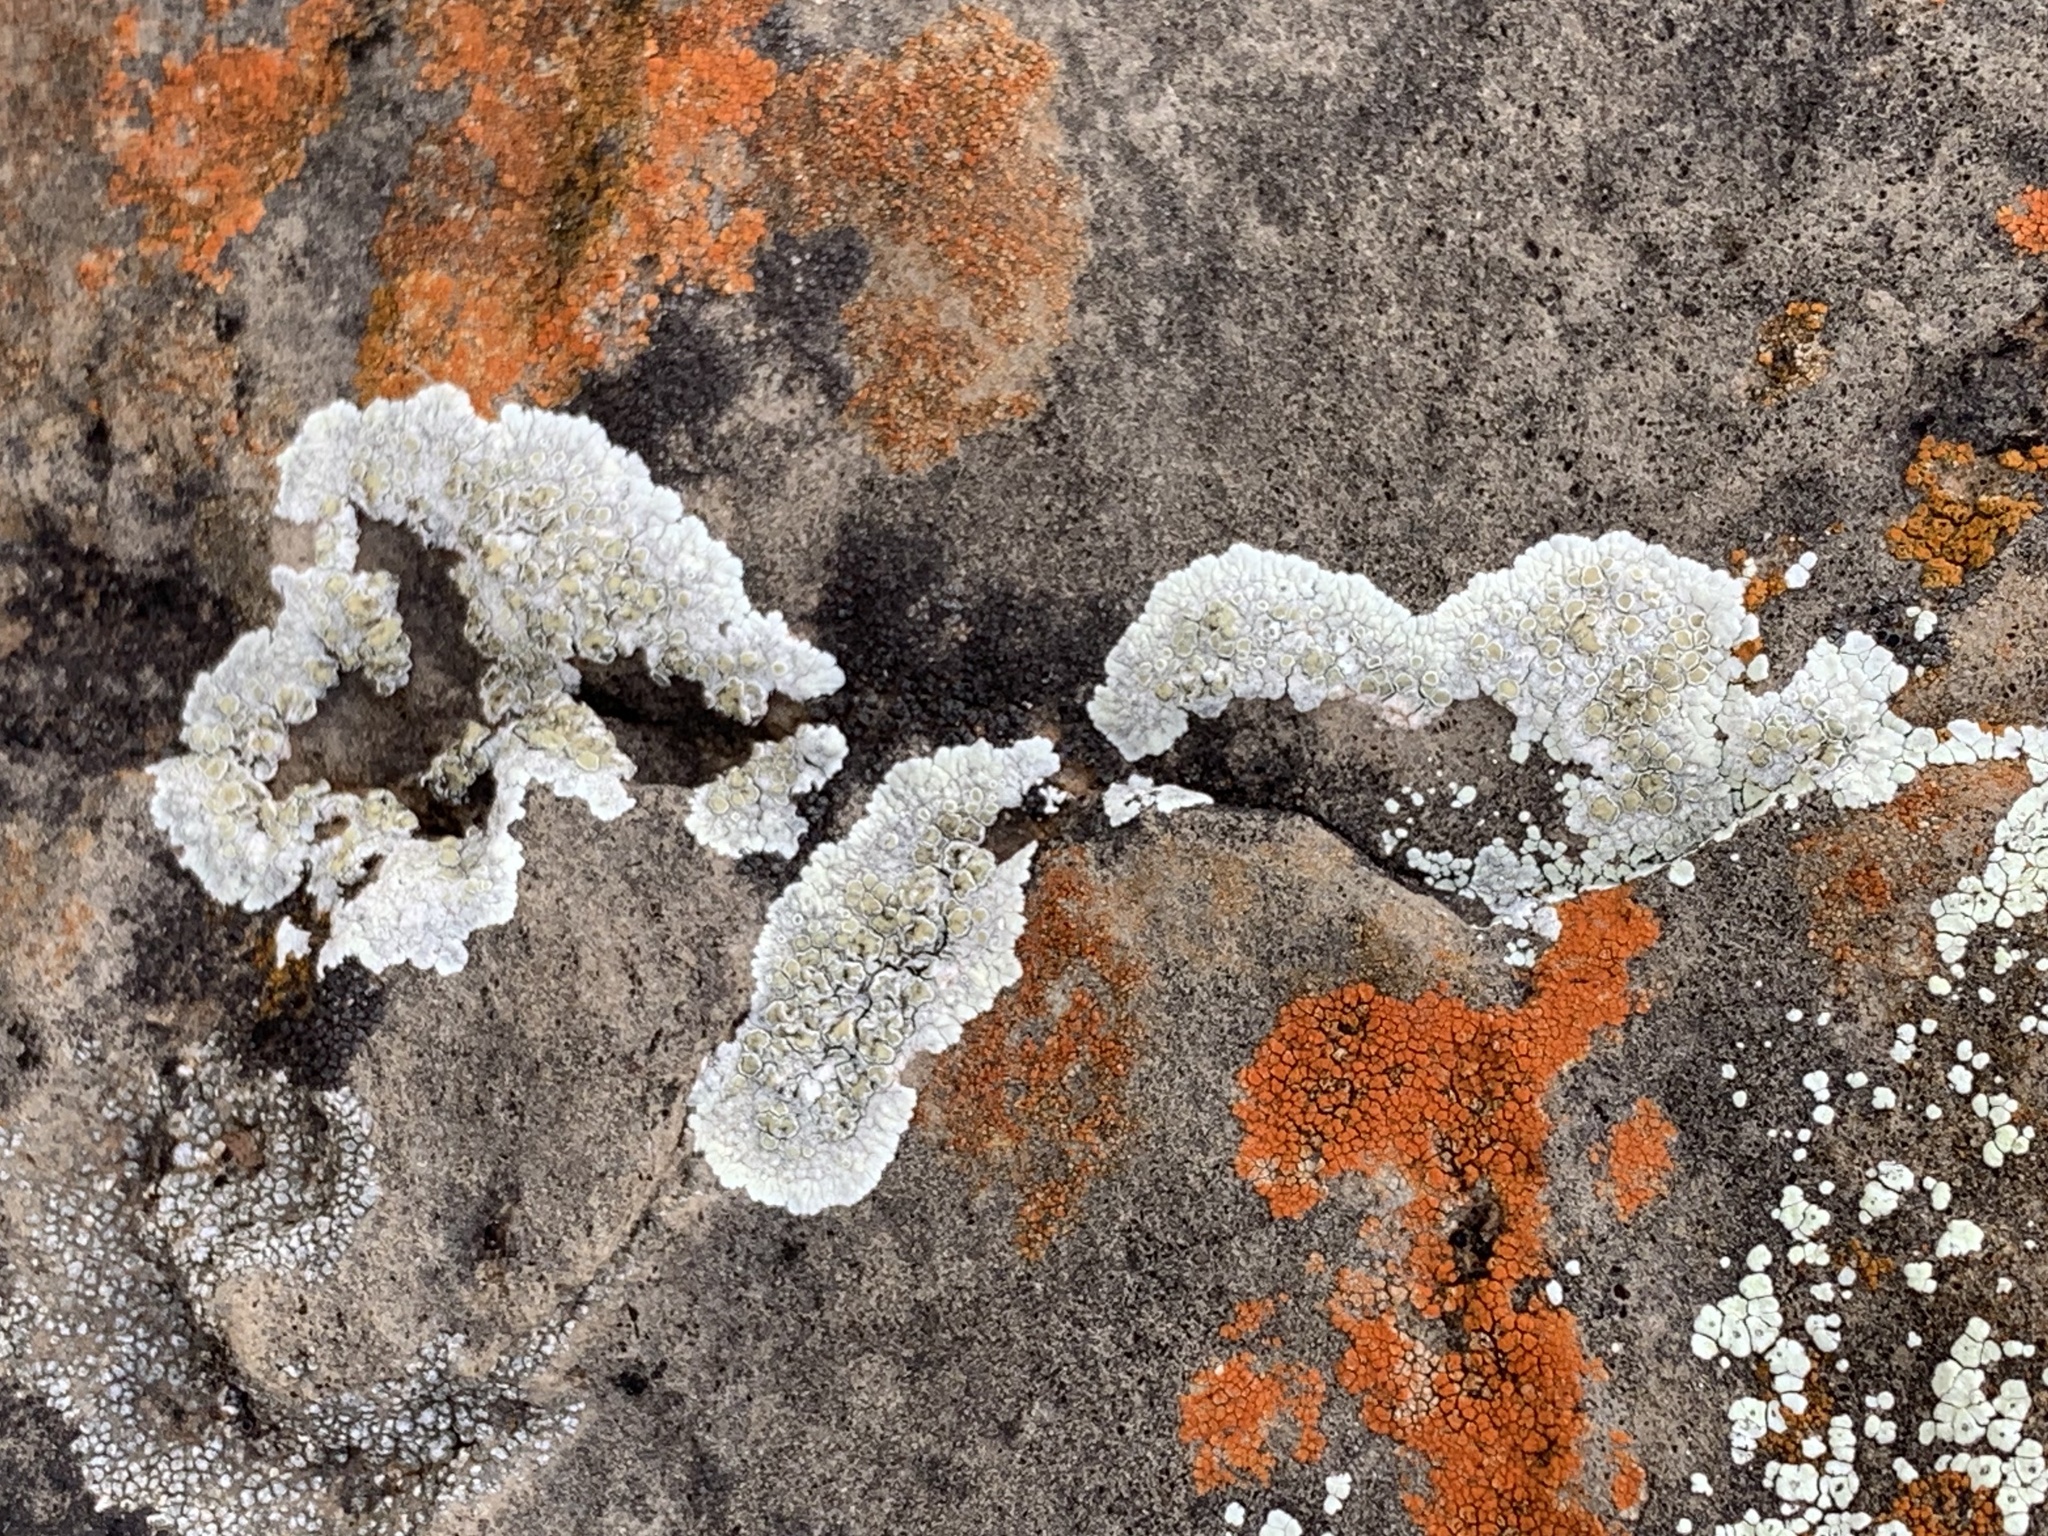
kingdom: Fungi
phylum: Ascomycota
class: Lecanoromycetes
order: Teloschistales
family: Teloschistaceae
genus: Squamulea
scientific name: Squamulea subsoluta
